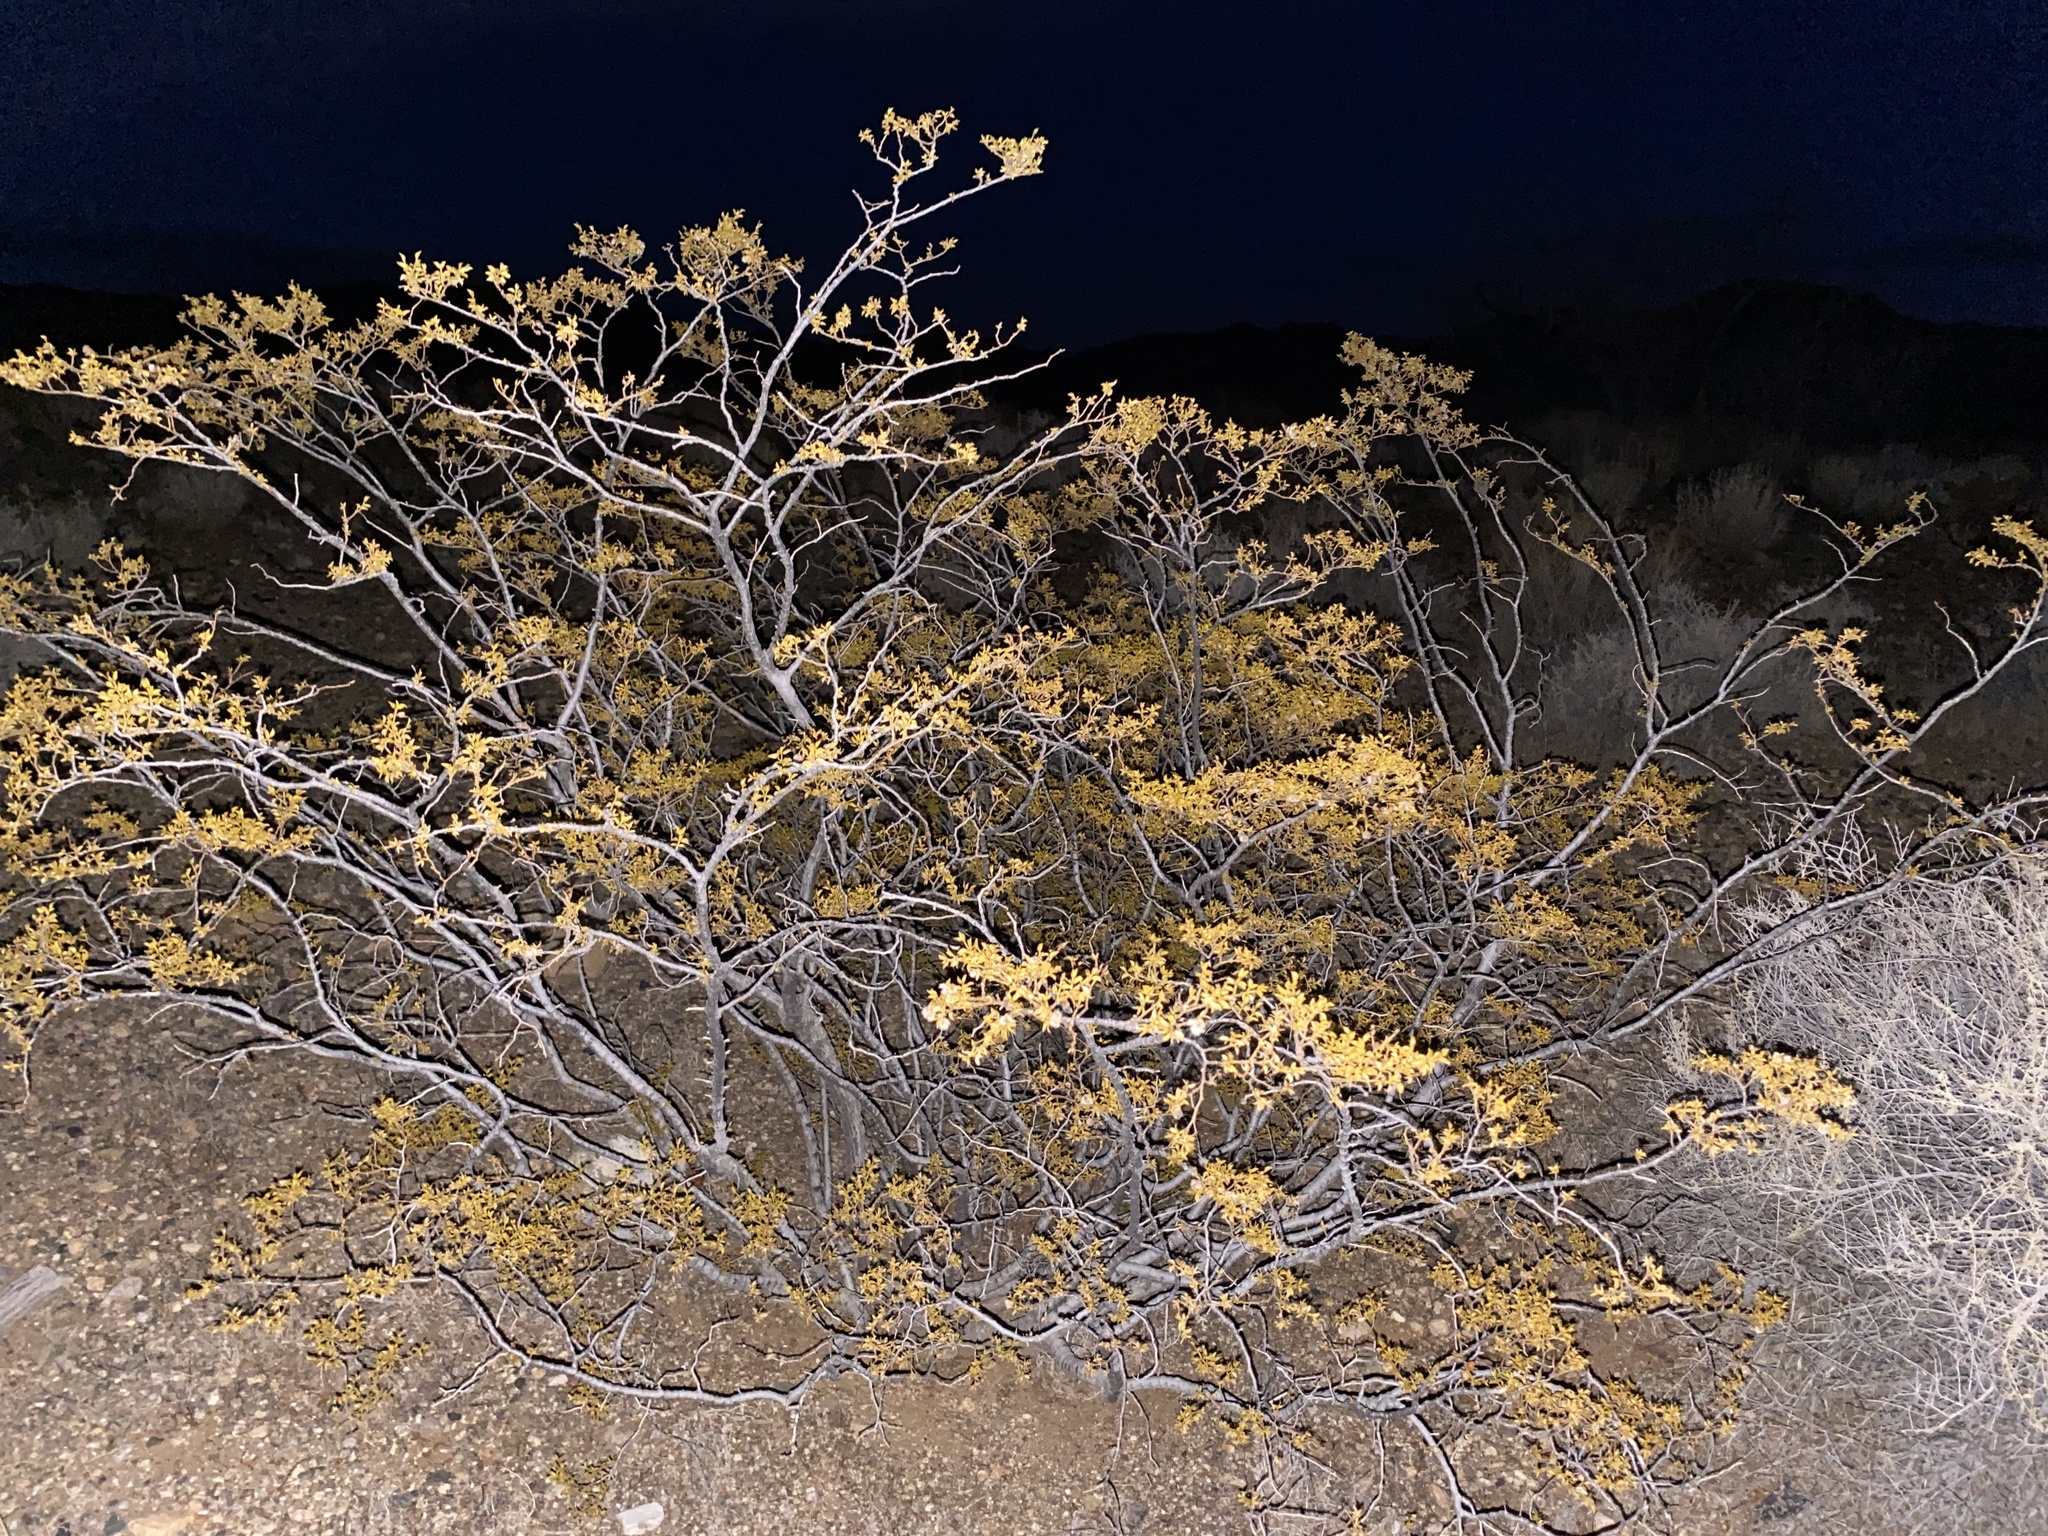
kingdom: Plantae
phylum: Tracheophyta
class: Magnoliopsida
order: Zygophyllales
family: Zygophyllaceae
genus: Larrea
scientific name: Larrea tridentata
